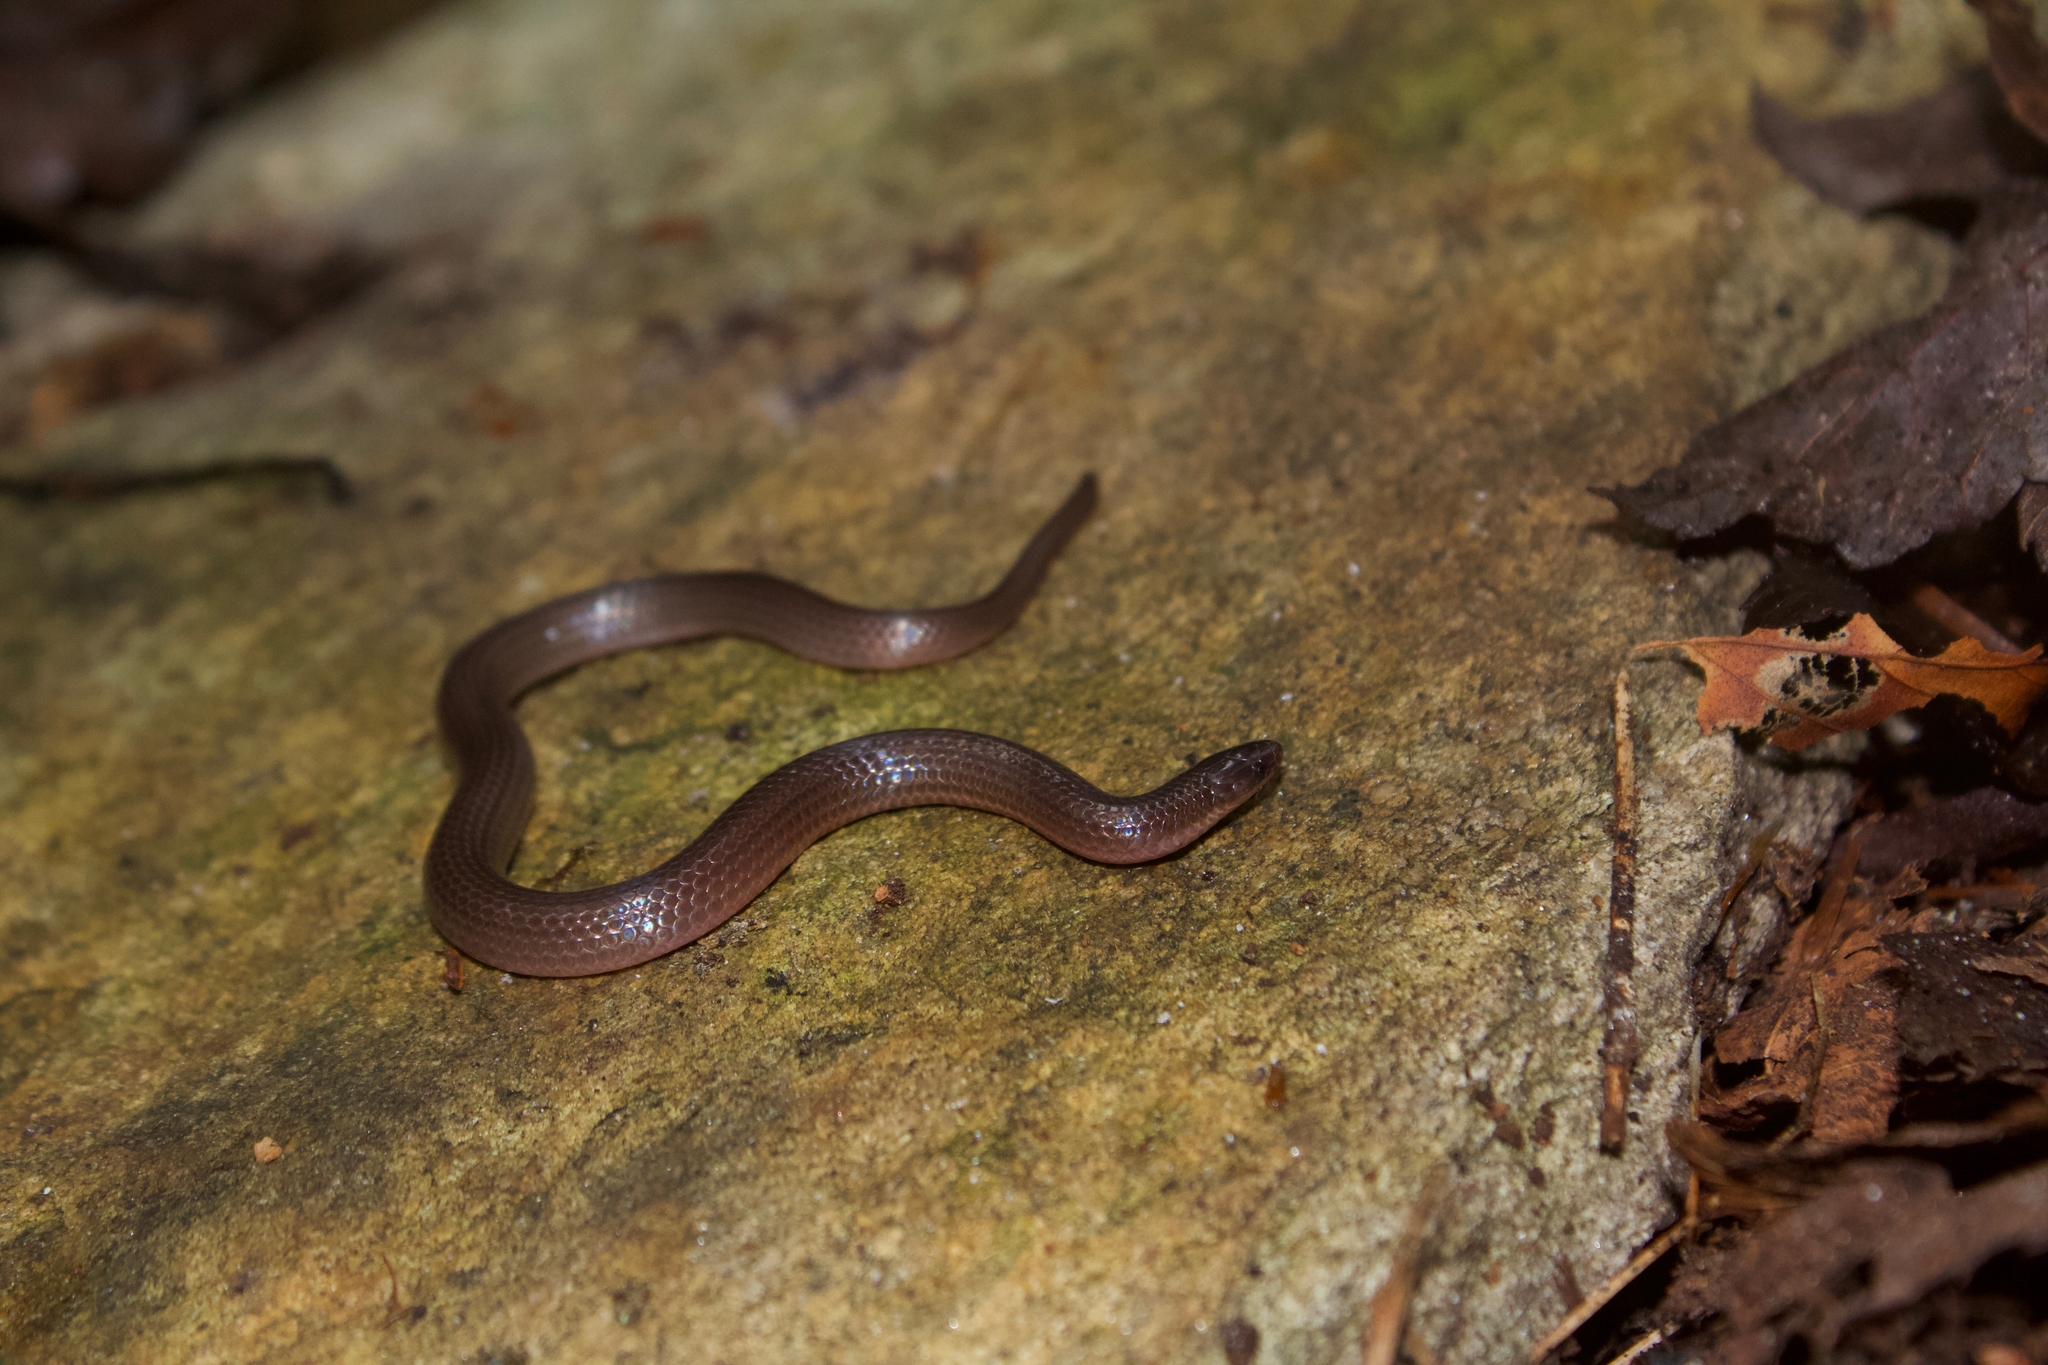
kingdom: Animalia
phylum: Chordata
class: Squamata
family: Colubridae
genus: Carphophis
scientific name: Carphophis amoenus
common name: Eastern worm snake
